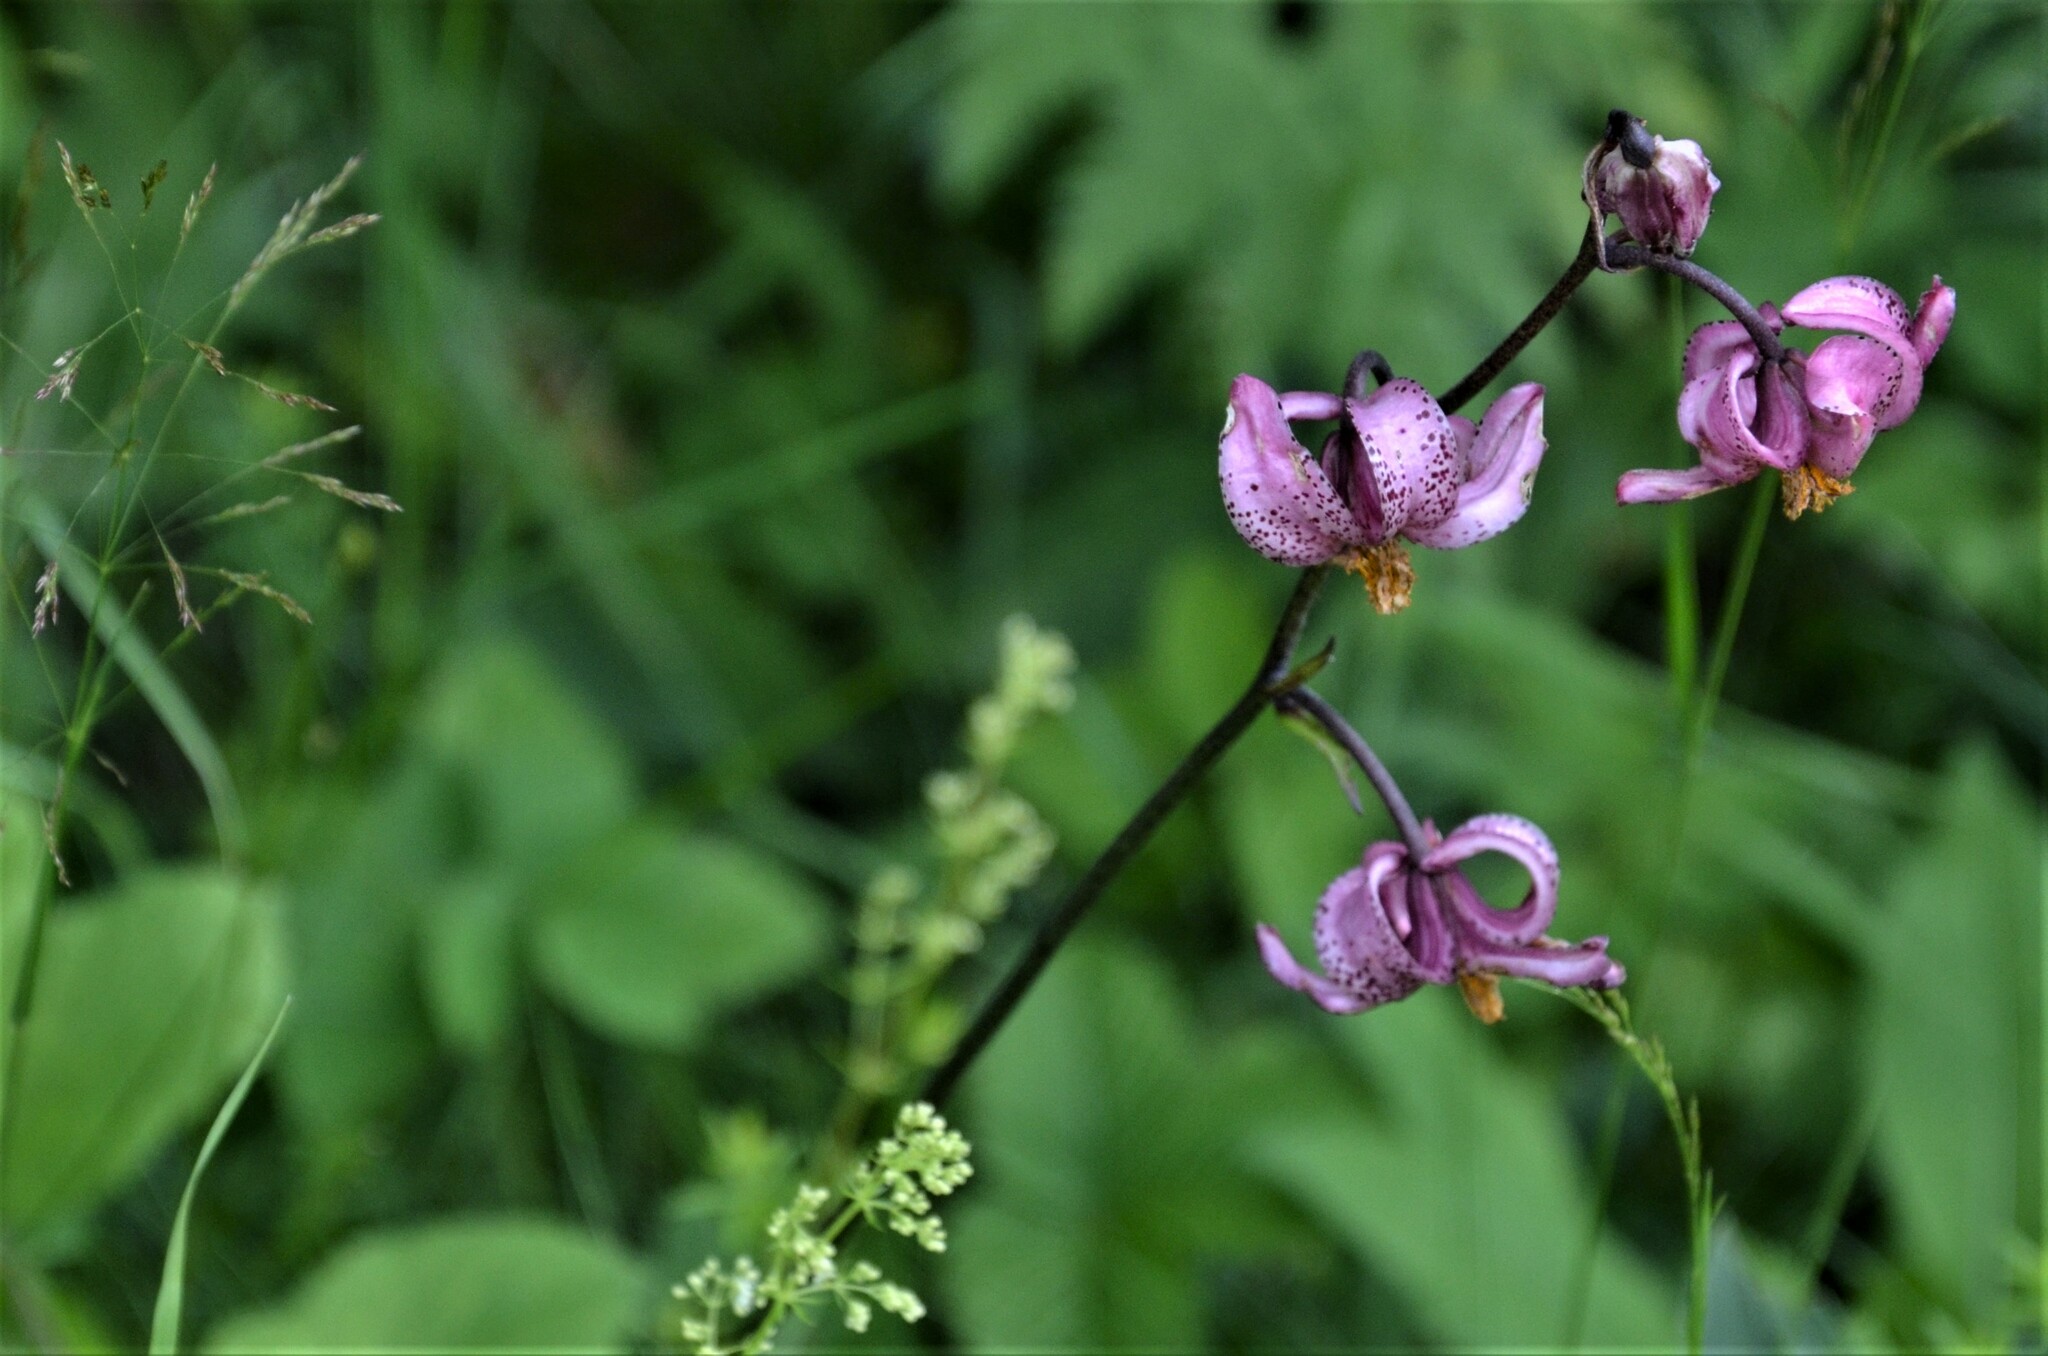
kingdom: Plantae
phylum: Tracheophyta
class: Liliopsida
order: Liliales
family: Liliaceae
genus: Lilium
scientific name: Lilium martagon
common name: Martagon lily
